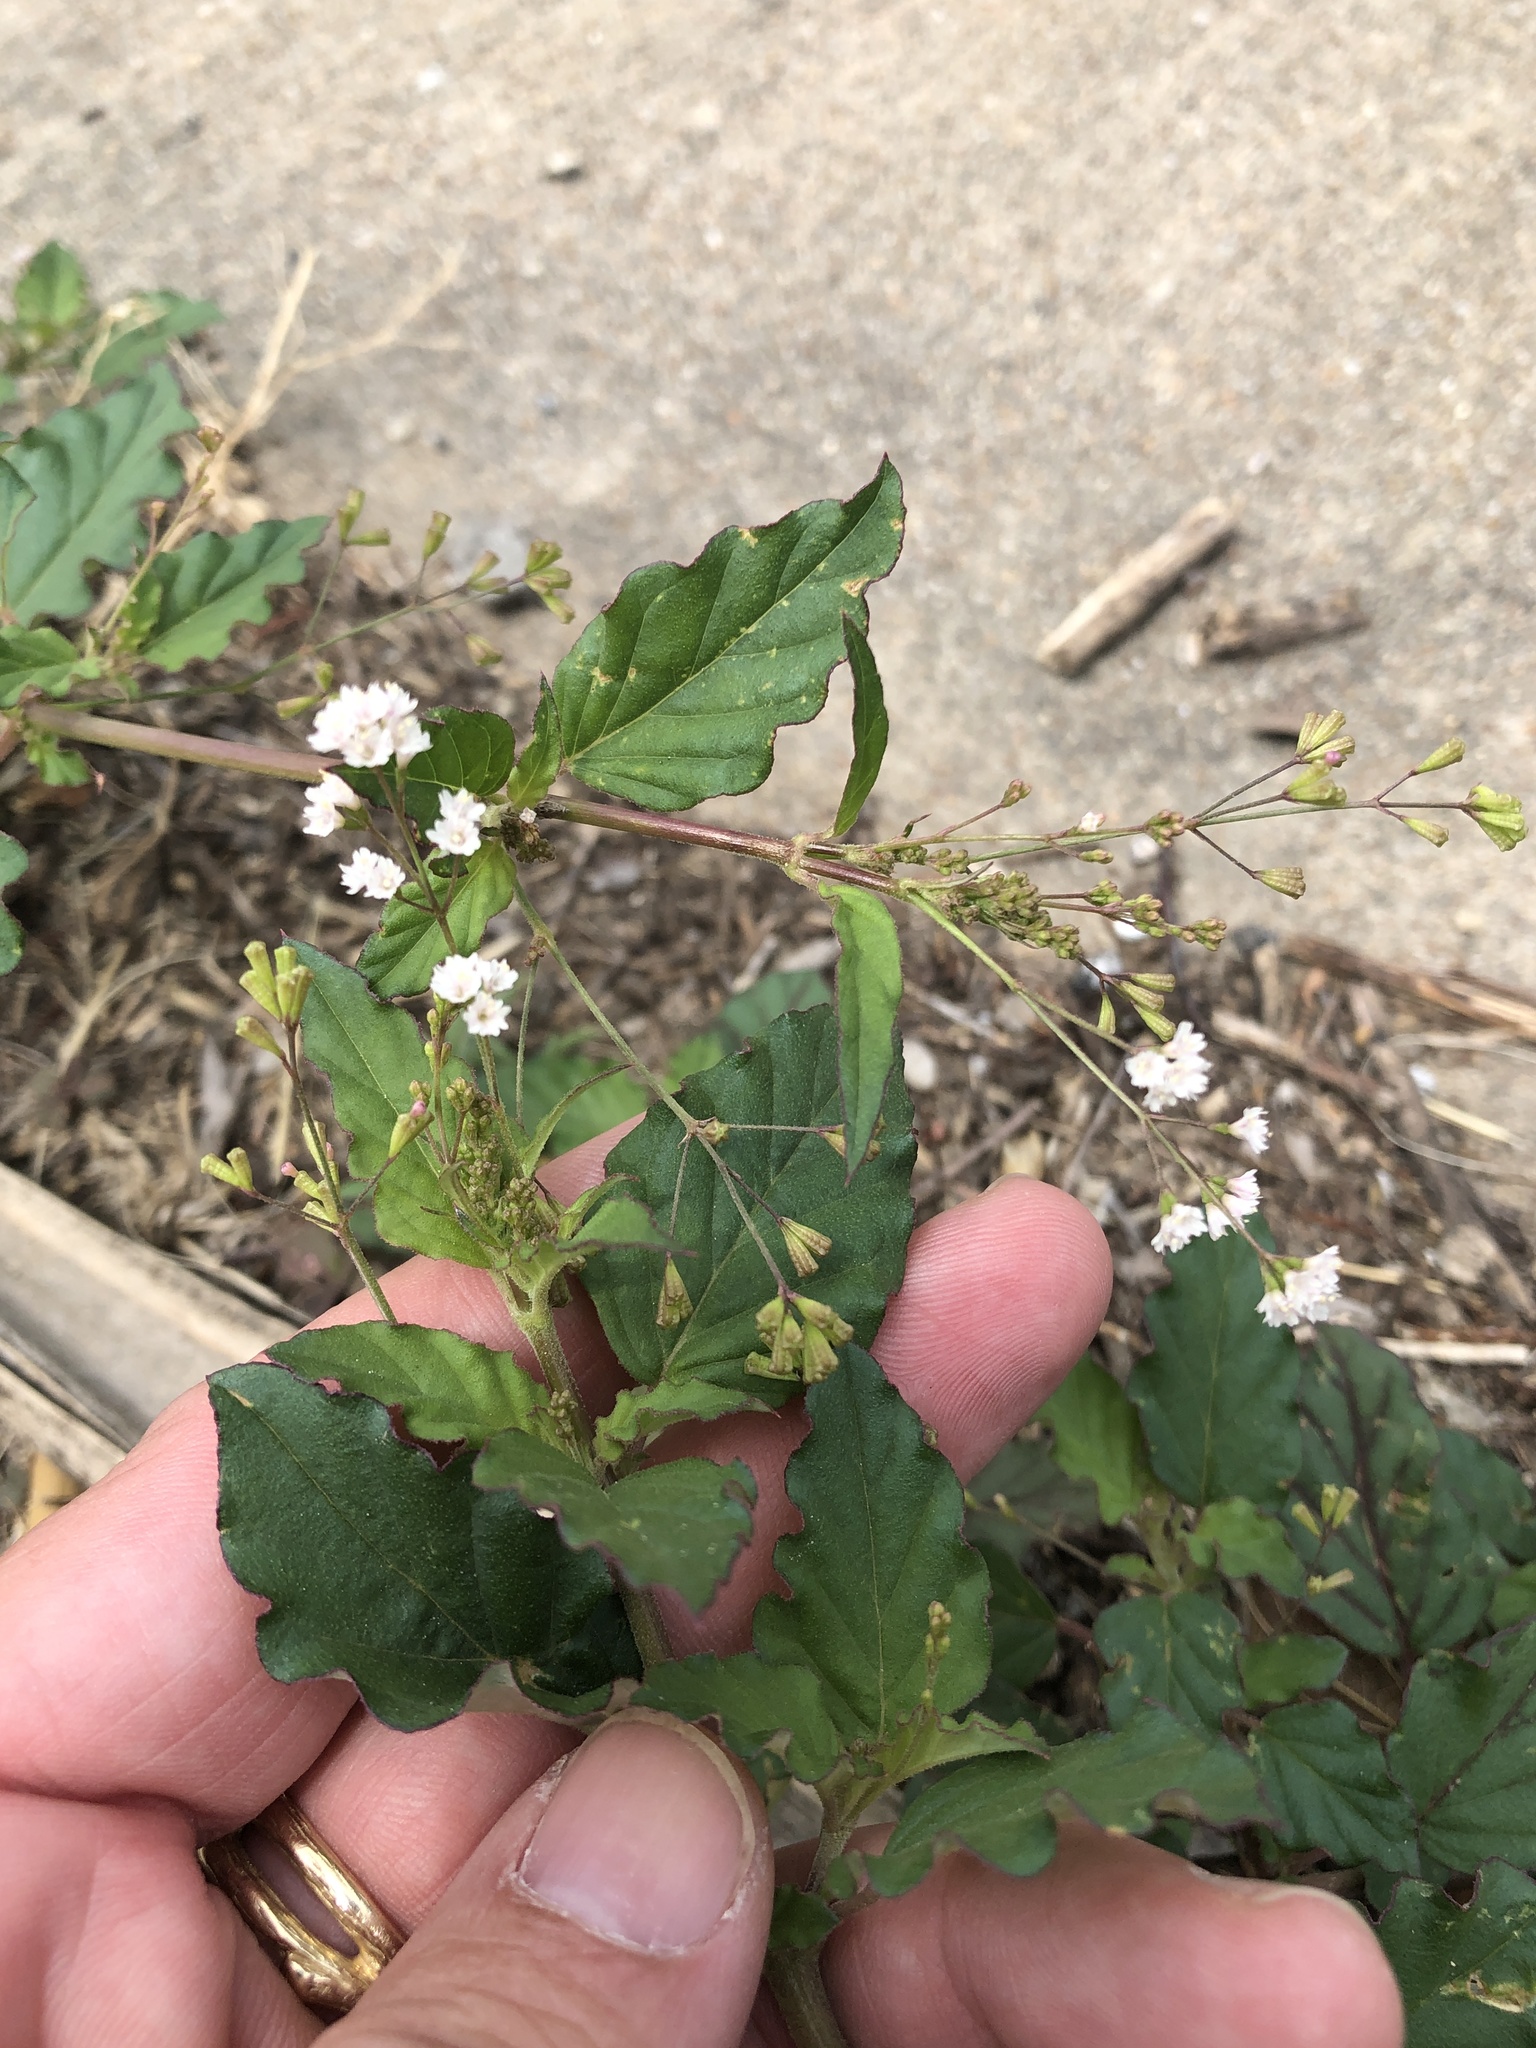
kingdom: Plantae
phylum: Tracheophyta
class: Magnoliopsida
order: Caryophyllales
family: Nyctaginaceae
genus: Boerhavia
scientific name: Boerhavia erecta
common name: Erect spiderling
